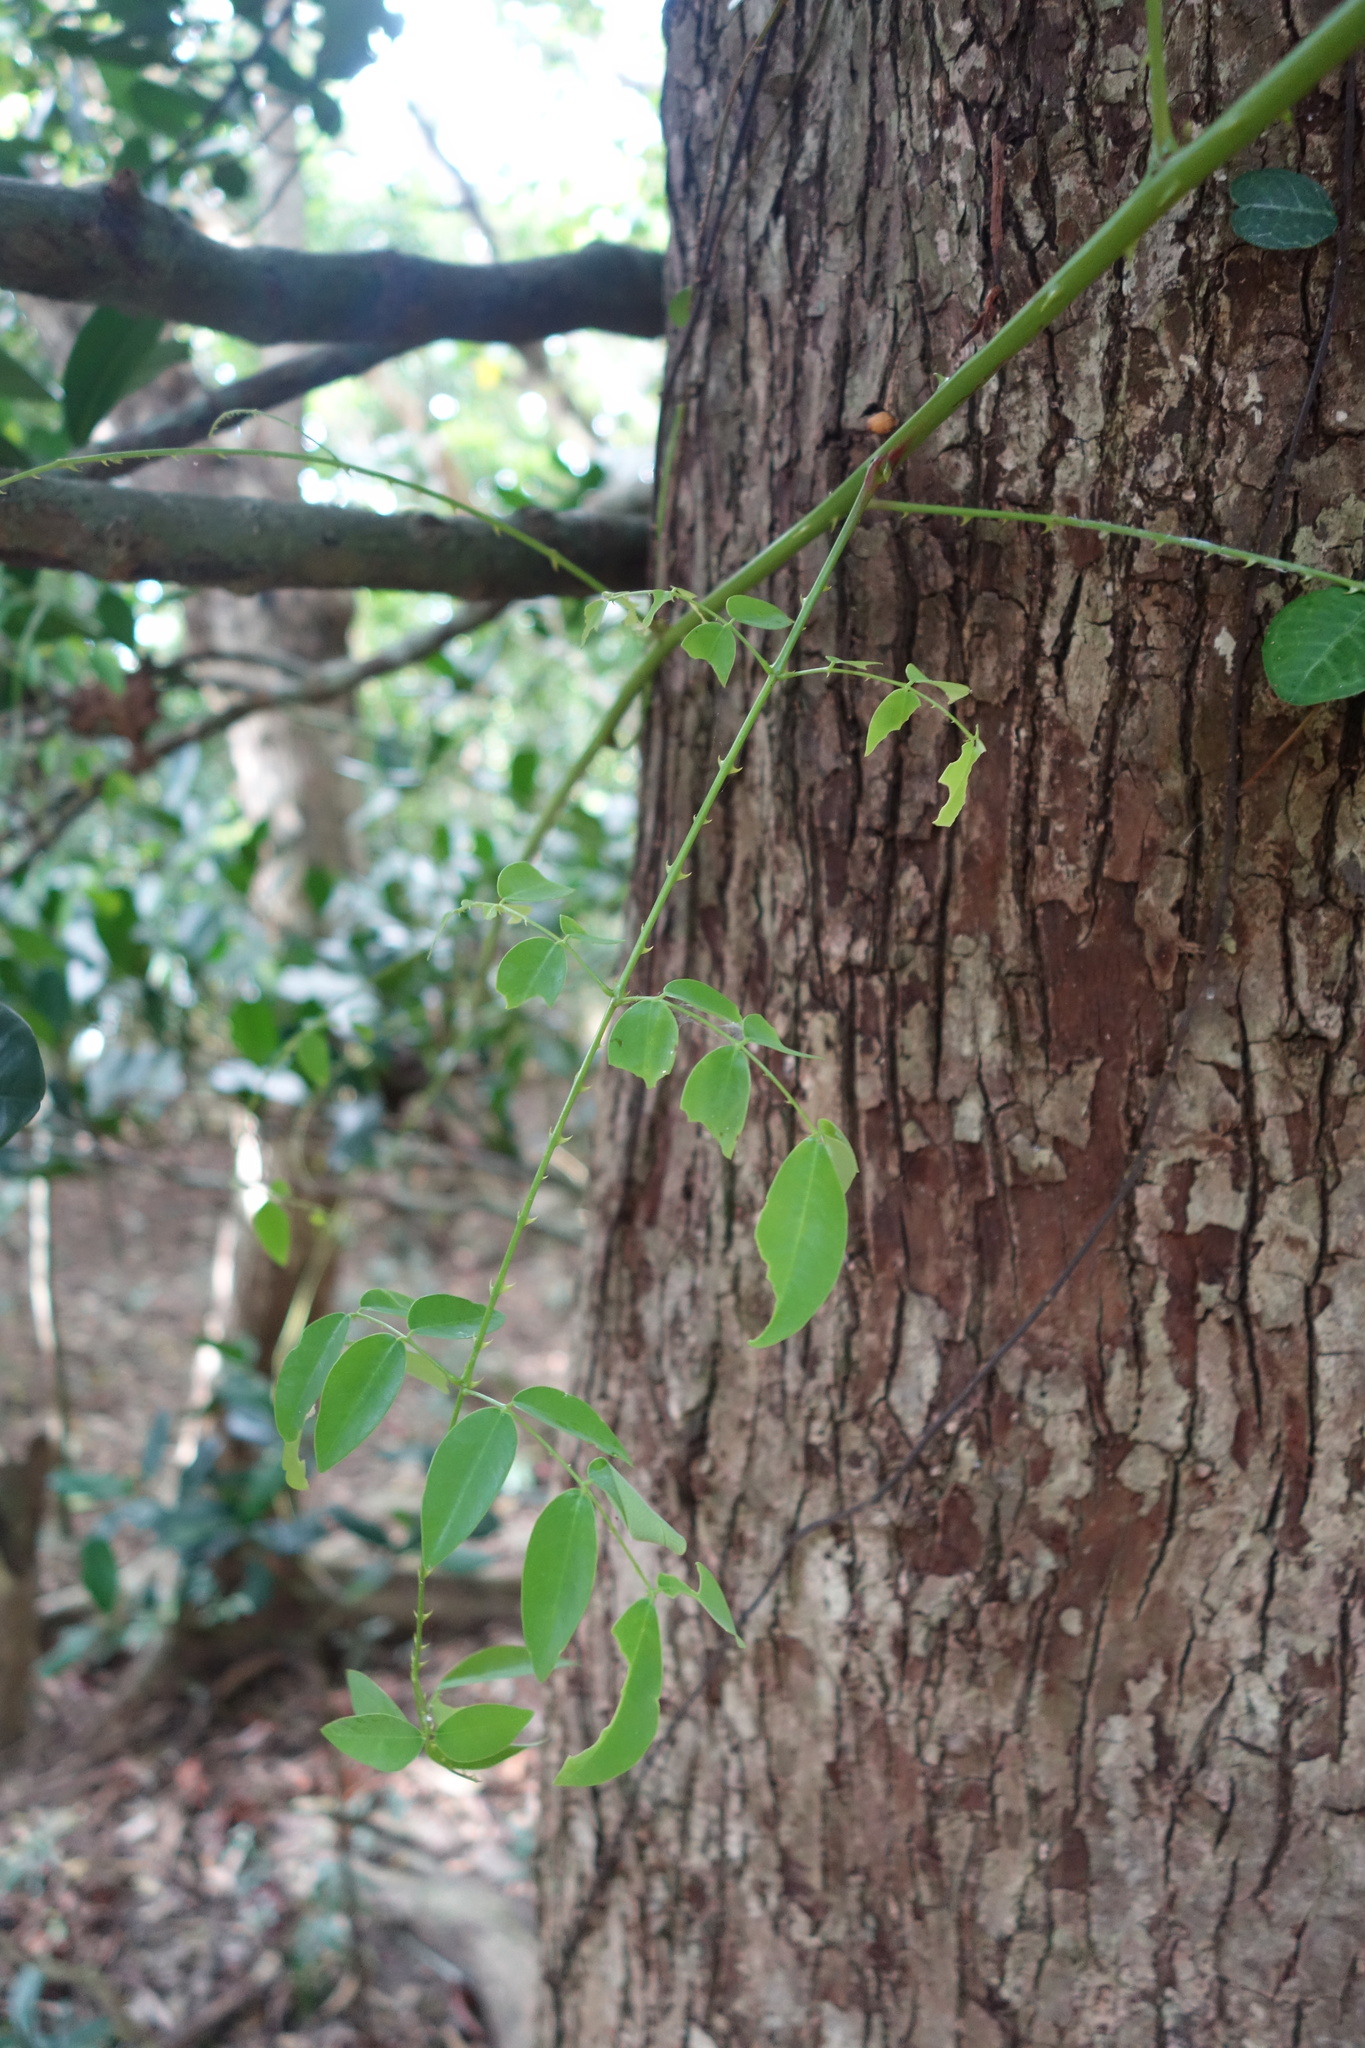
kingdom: Plantae
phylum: Tracheophyta
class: Magnoliopsida
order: Fabales
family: Fabaceae
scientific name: Fabaceae
